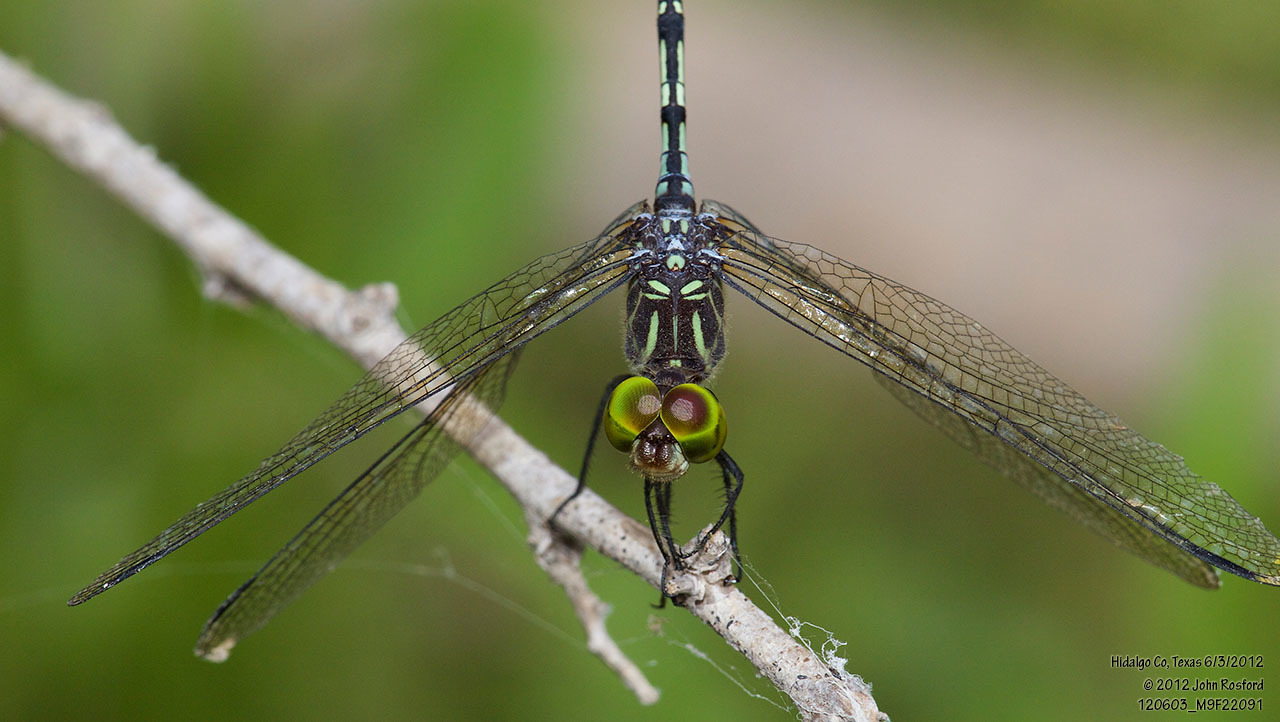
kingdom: Animalia
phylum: Arthropoda
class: Insecta
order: Odonata
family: Libellulidae
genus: Micrathyria
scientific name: Micrathyria dissocians
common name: Caribbean dasher
